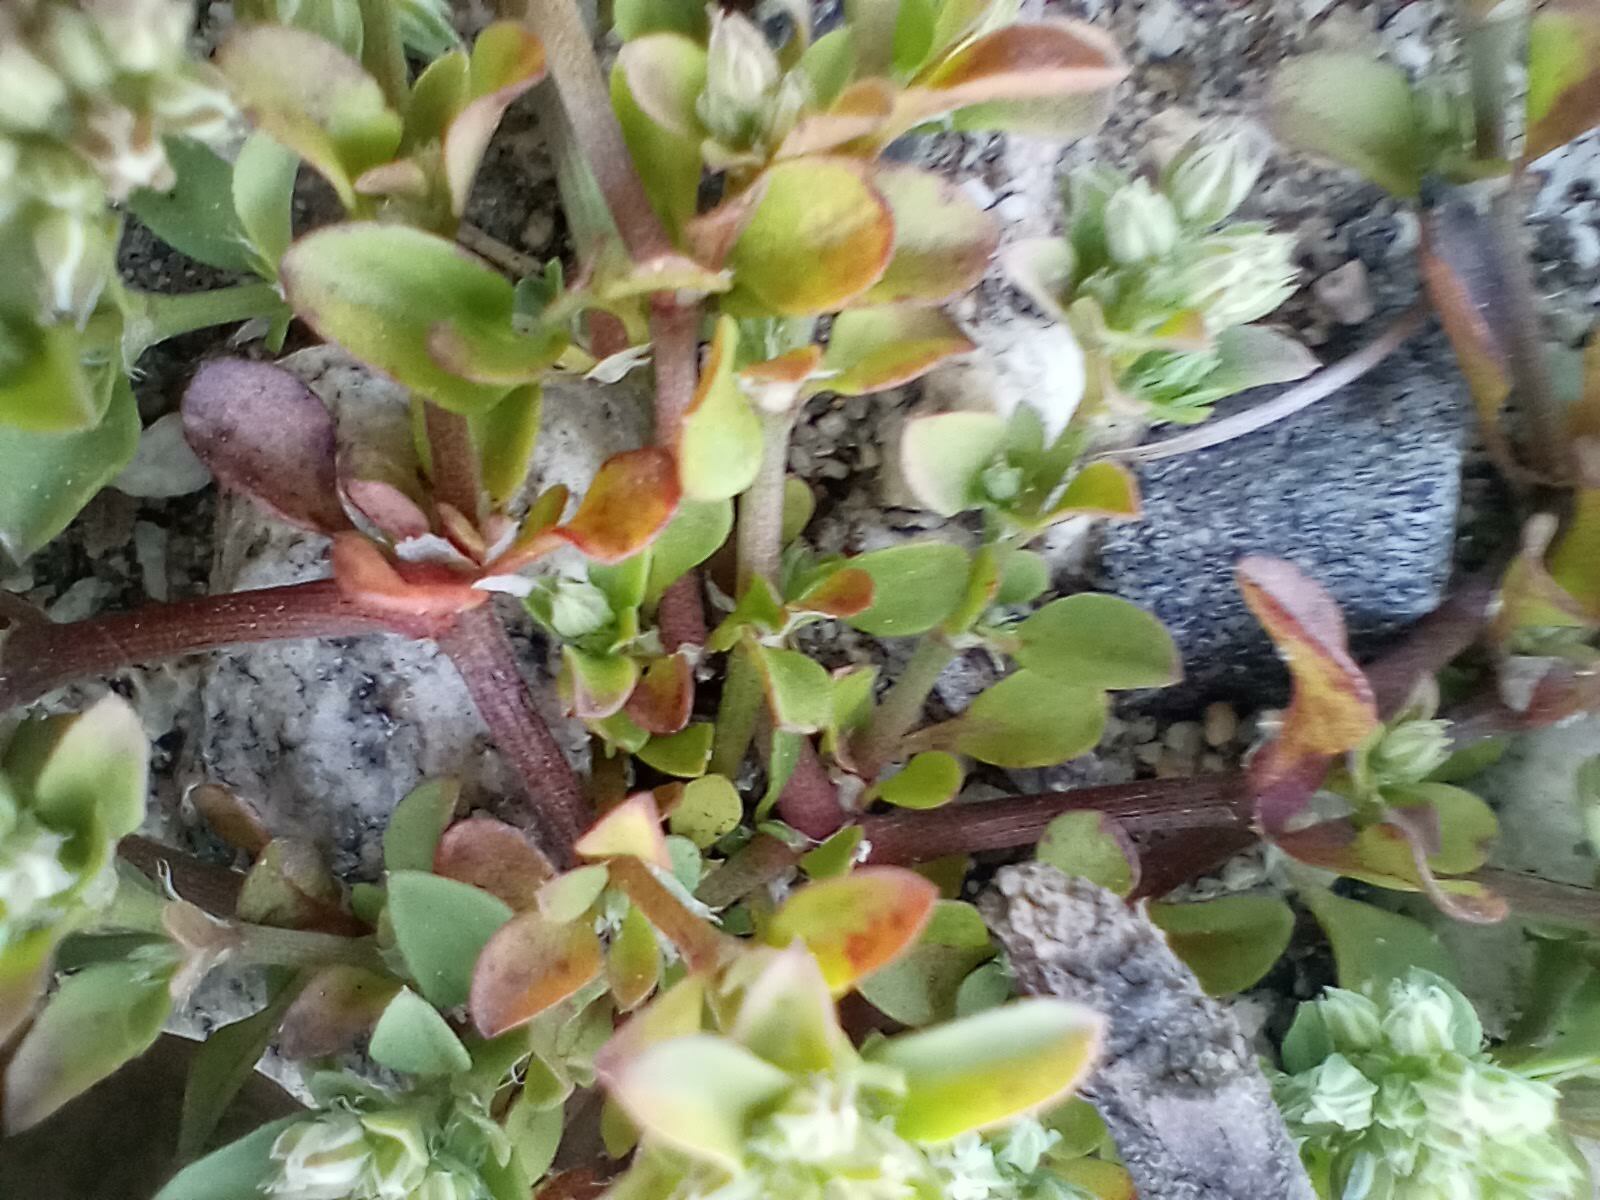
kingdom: Plantae
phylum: Tracheophyta
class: Magnoliopsida
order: Caryophyllales
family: Caryophyllaceae
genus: Polycarpon
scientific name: Polycarpon tetraphyllum
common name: Four-leaved all-seed
